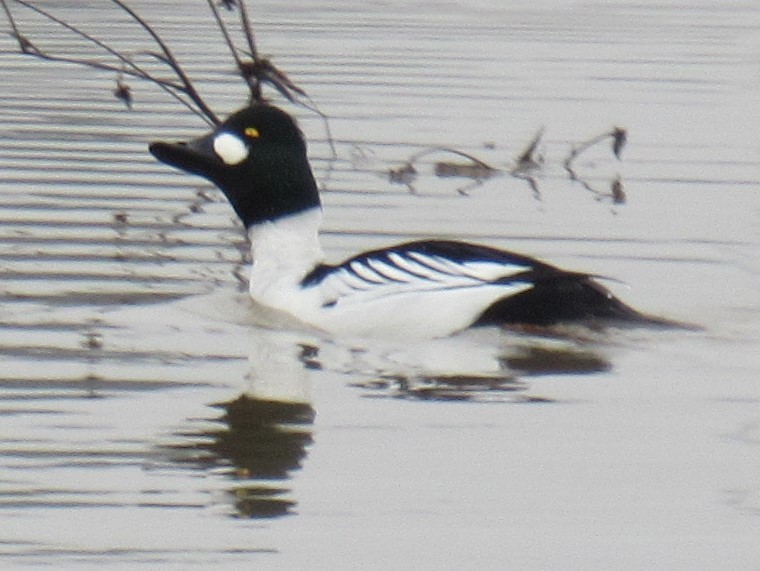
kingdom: Animalia
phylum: Chordata
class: Aves
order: Anseriformes
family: Anatidae
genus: Bucephala
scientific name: Bucephala clangula
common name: Common goldeneye
